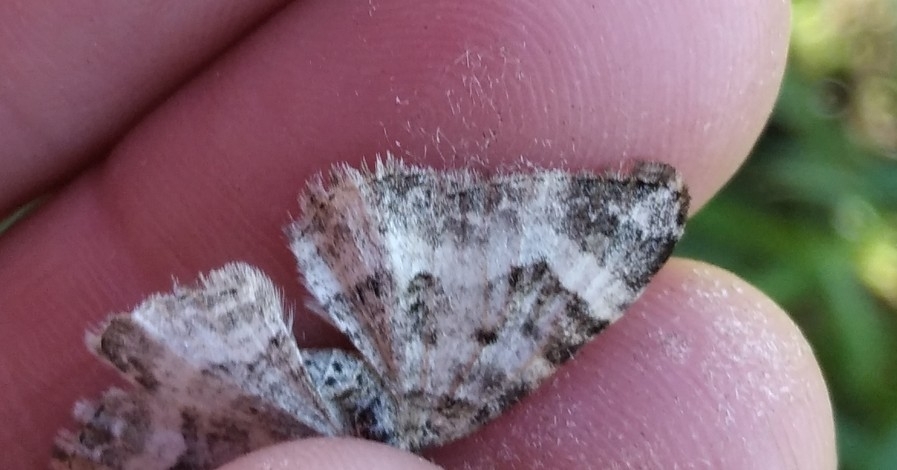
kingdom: Animalia
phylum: Arthropoda
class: Insecta
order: Lepidoptera
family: Geometridae
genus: Epirrhoe
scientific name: Epirrhoe alternata
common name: Common carpet
